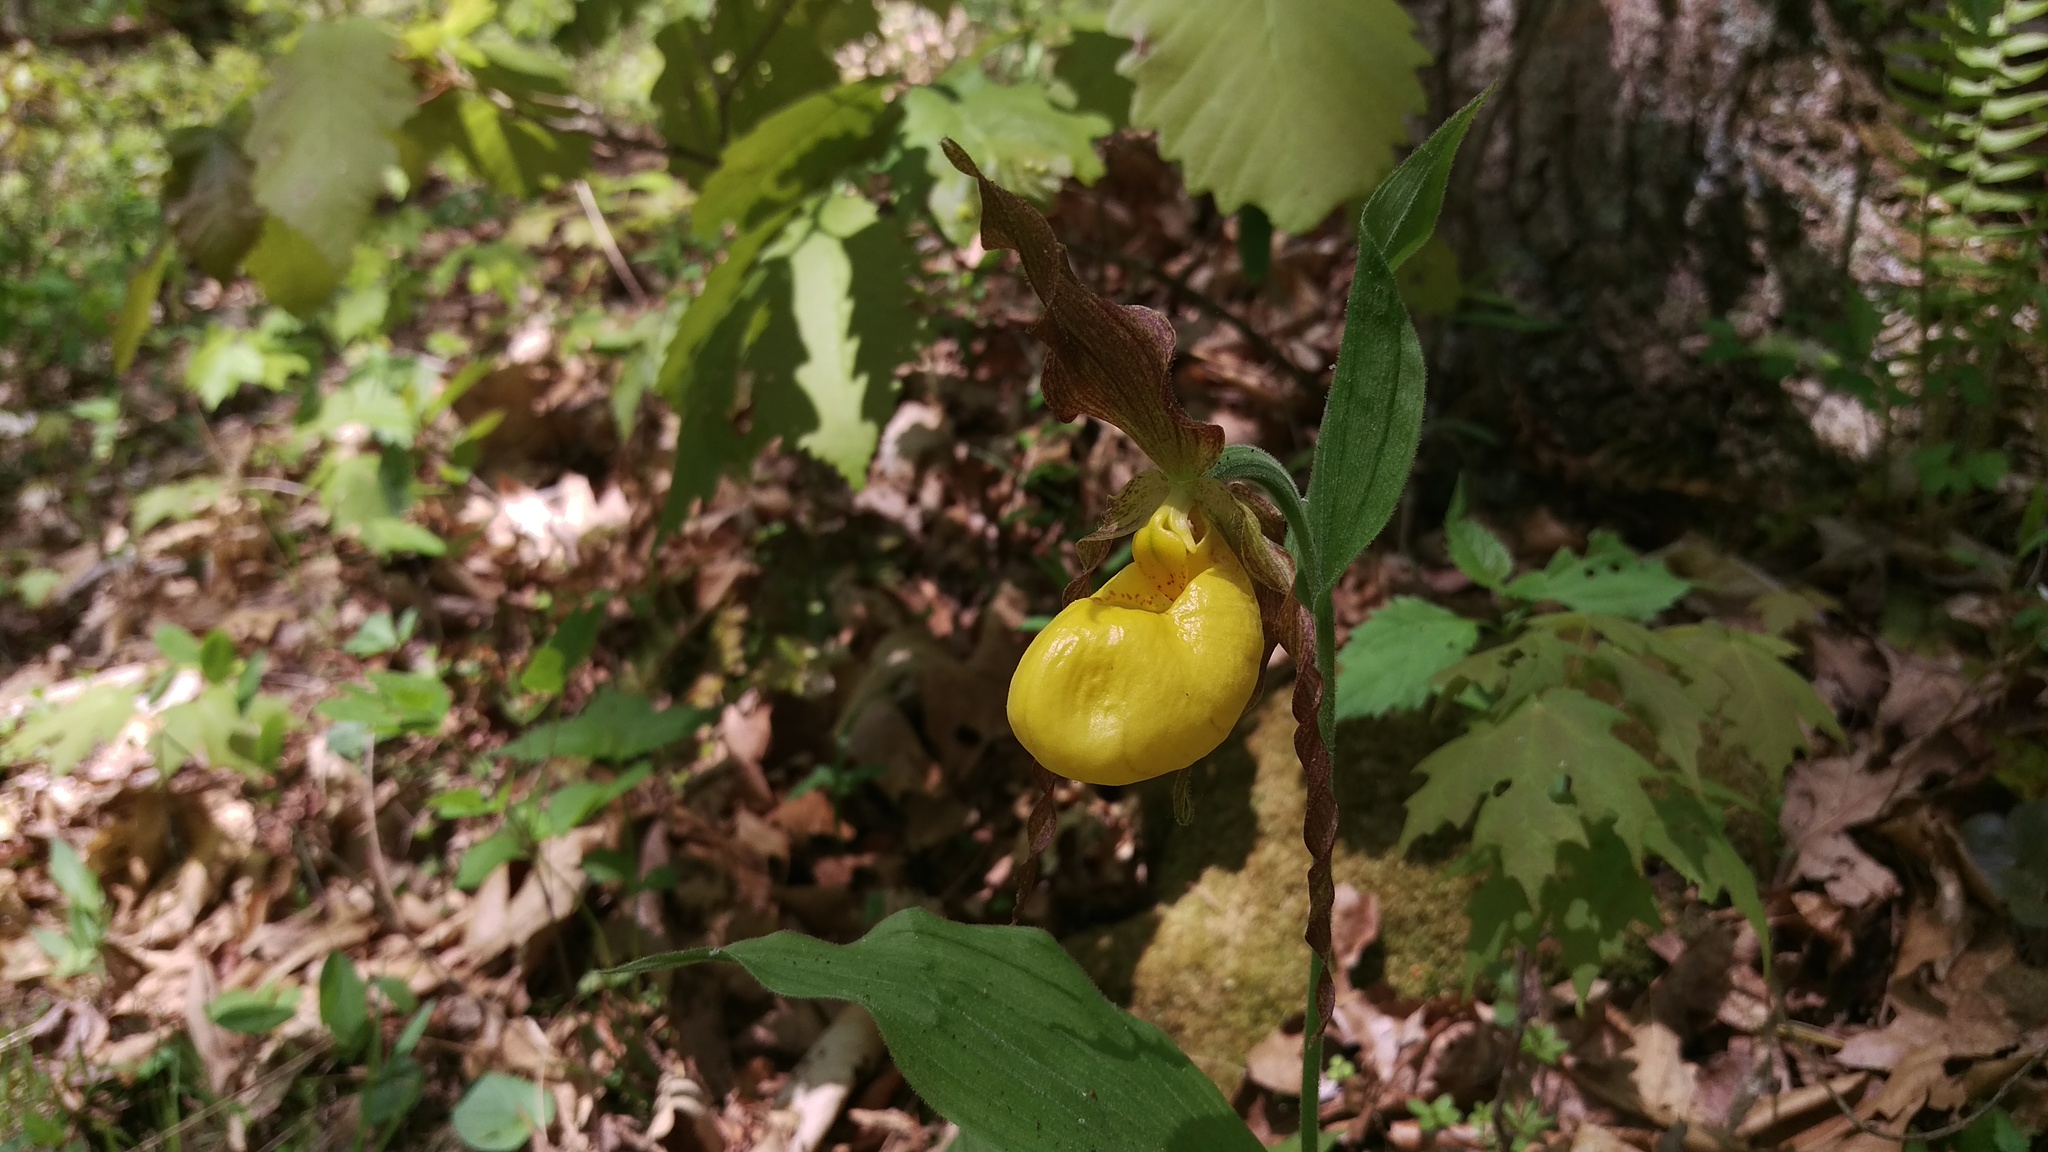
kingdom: Plantae
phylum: Tracheophyta
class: Liliopsida
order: Asparagales
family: Orchidaceae
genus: Cypripedium
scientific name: Cypripedium parviflorum
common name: American yellow lady's-slipper
